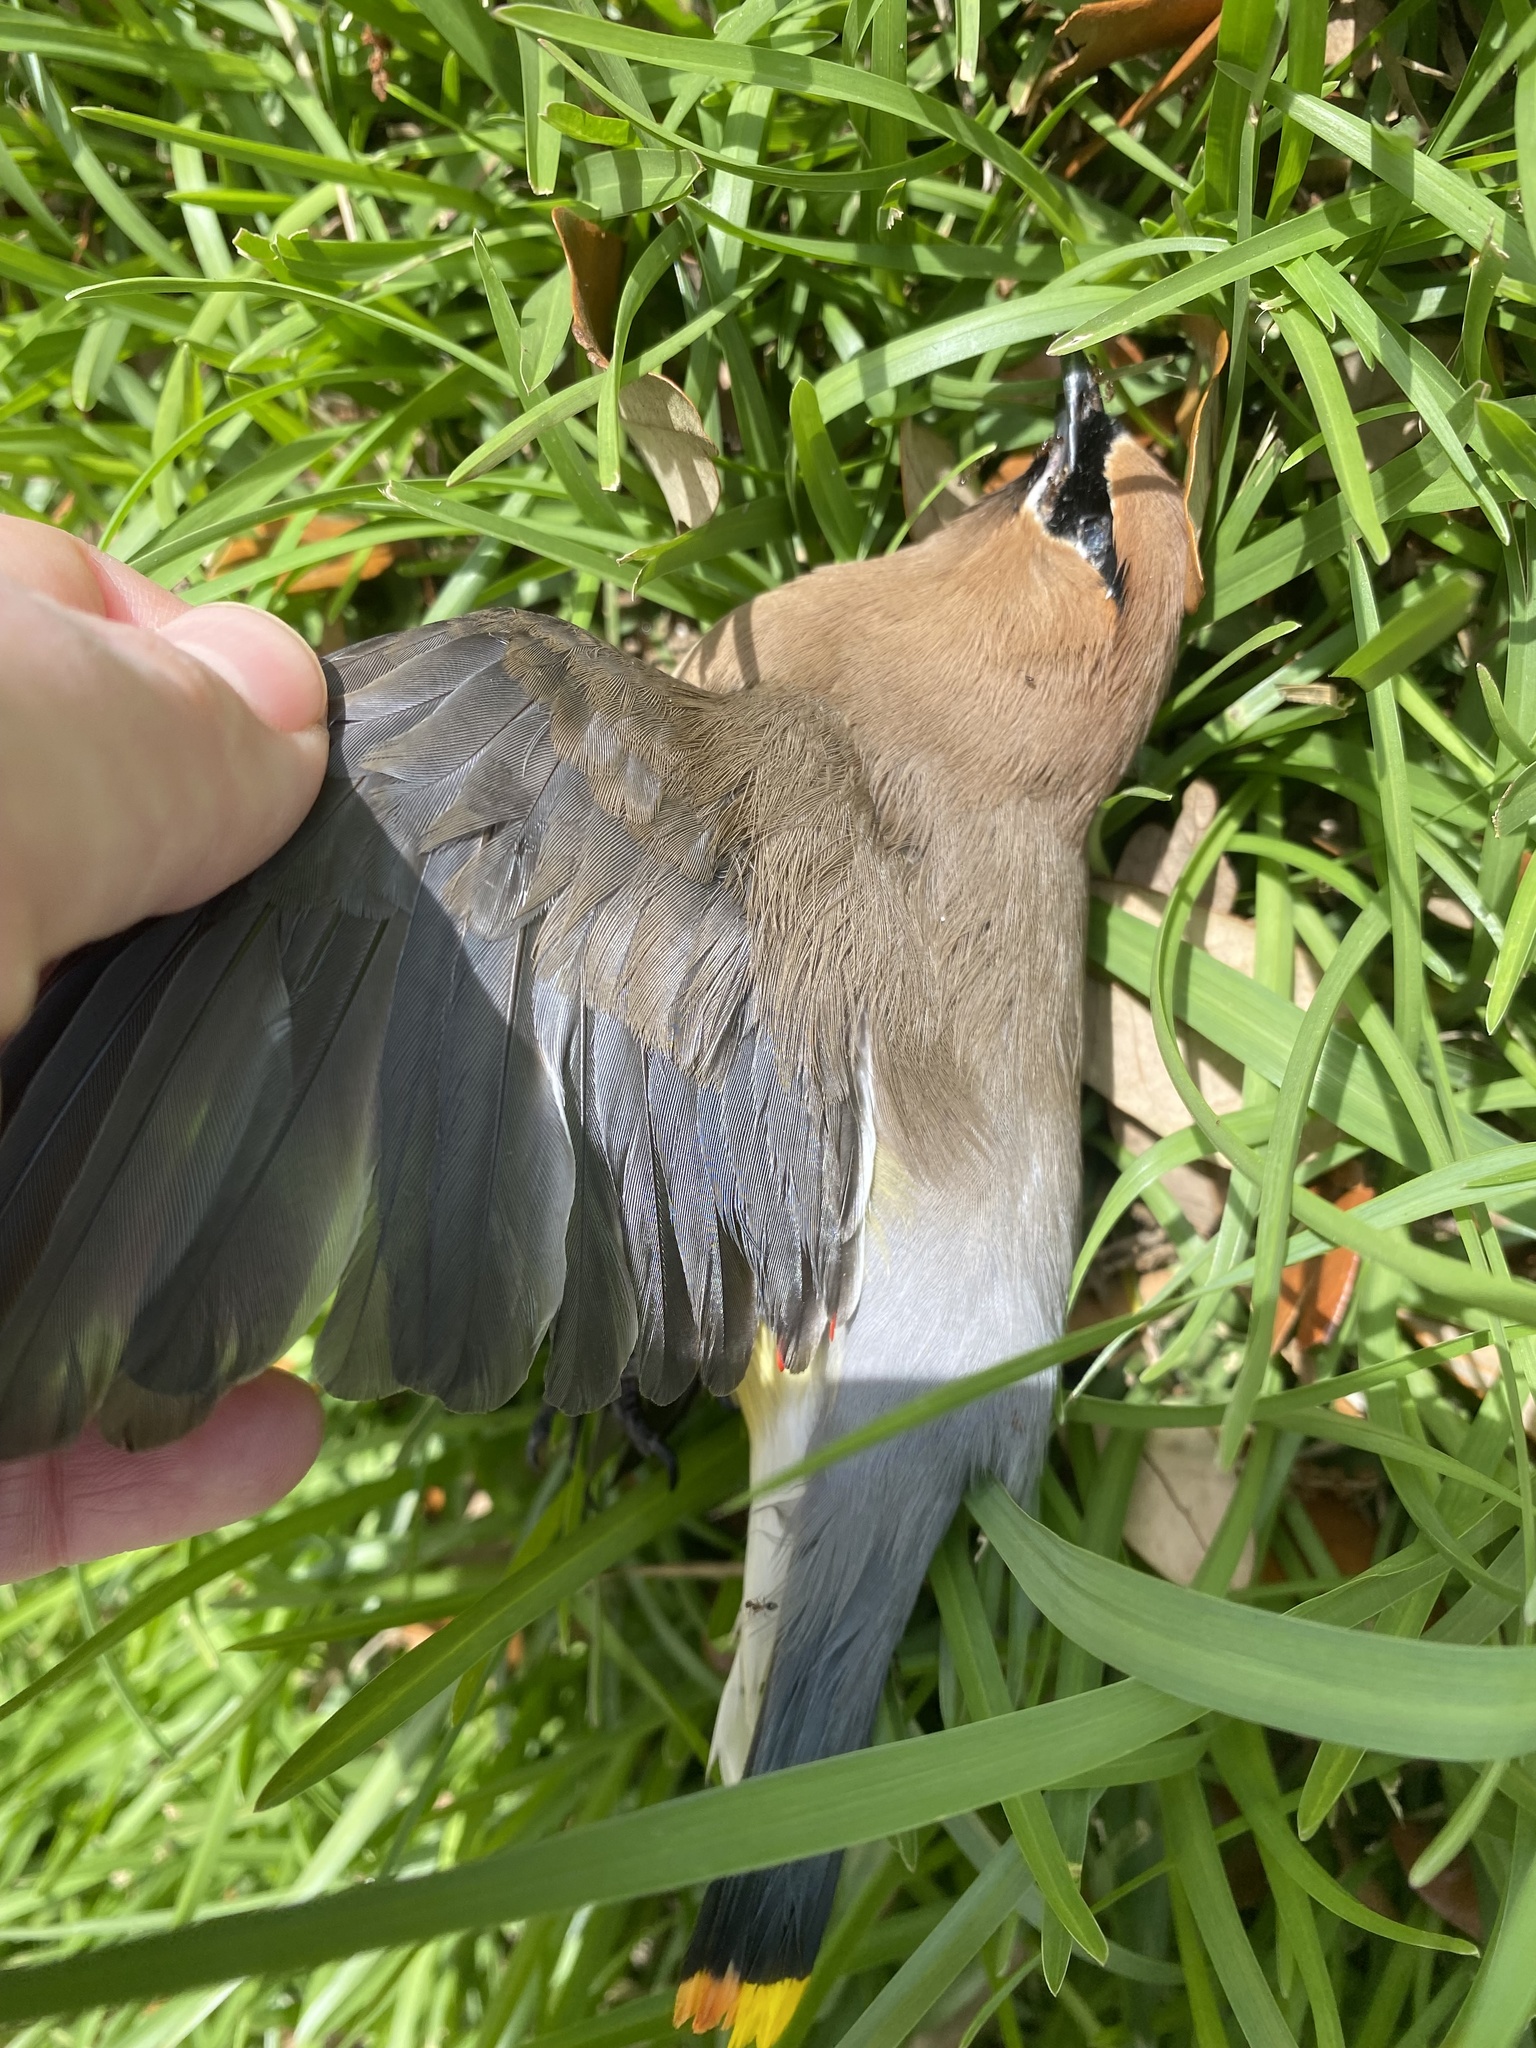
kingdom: Animalia
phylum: Chordata
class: Aves
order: Passeriformes
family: Bombycillidae
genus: Bombycilla
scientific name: Bombycilla cedrorum
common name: Cedar waxwing
